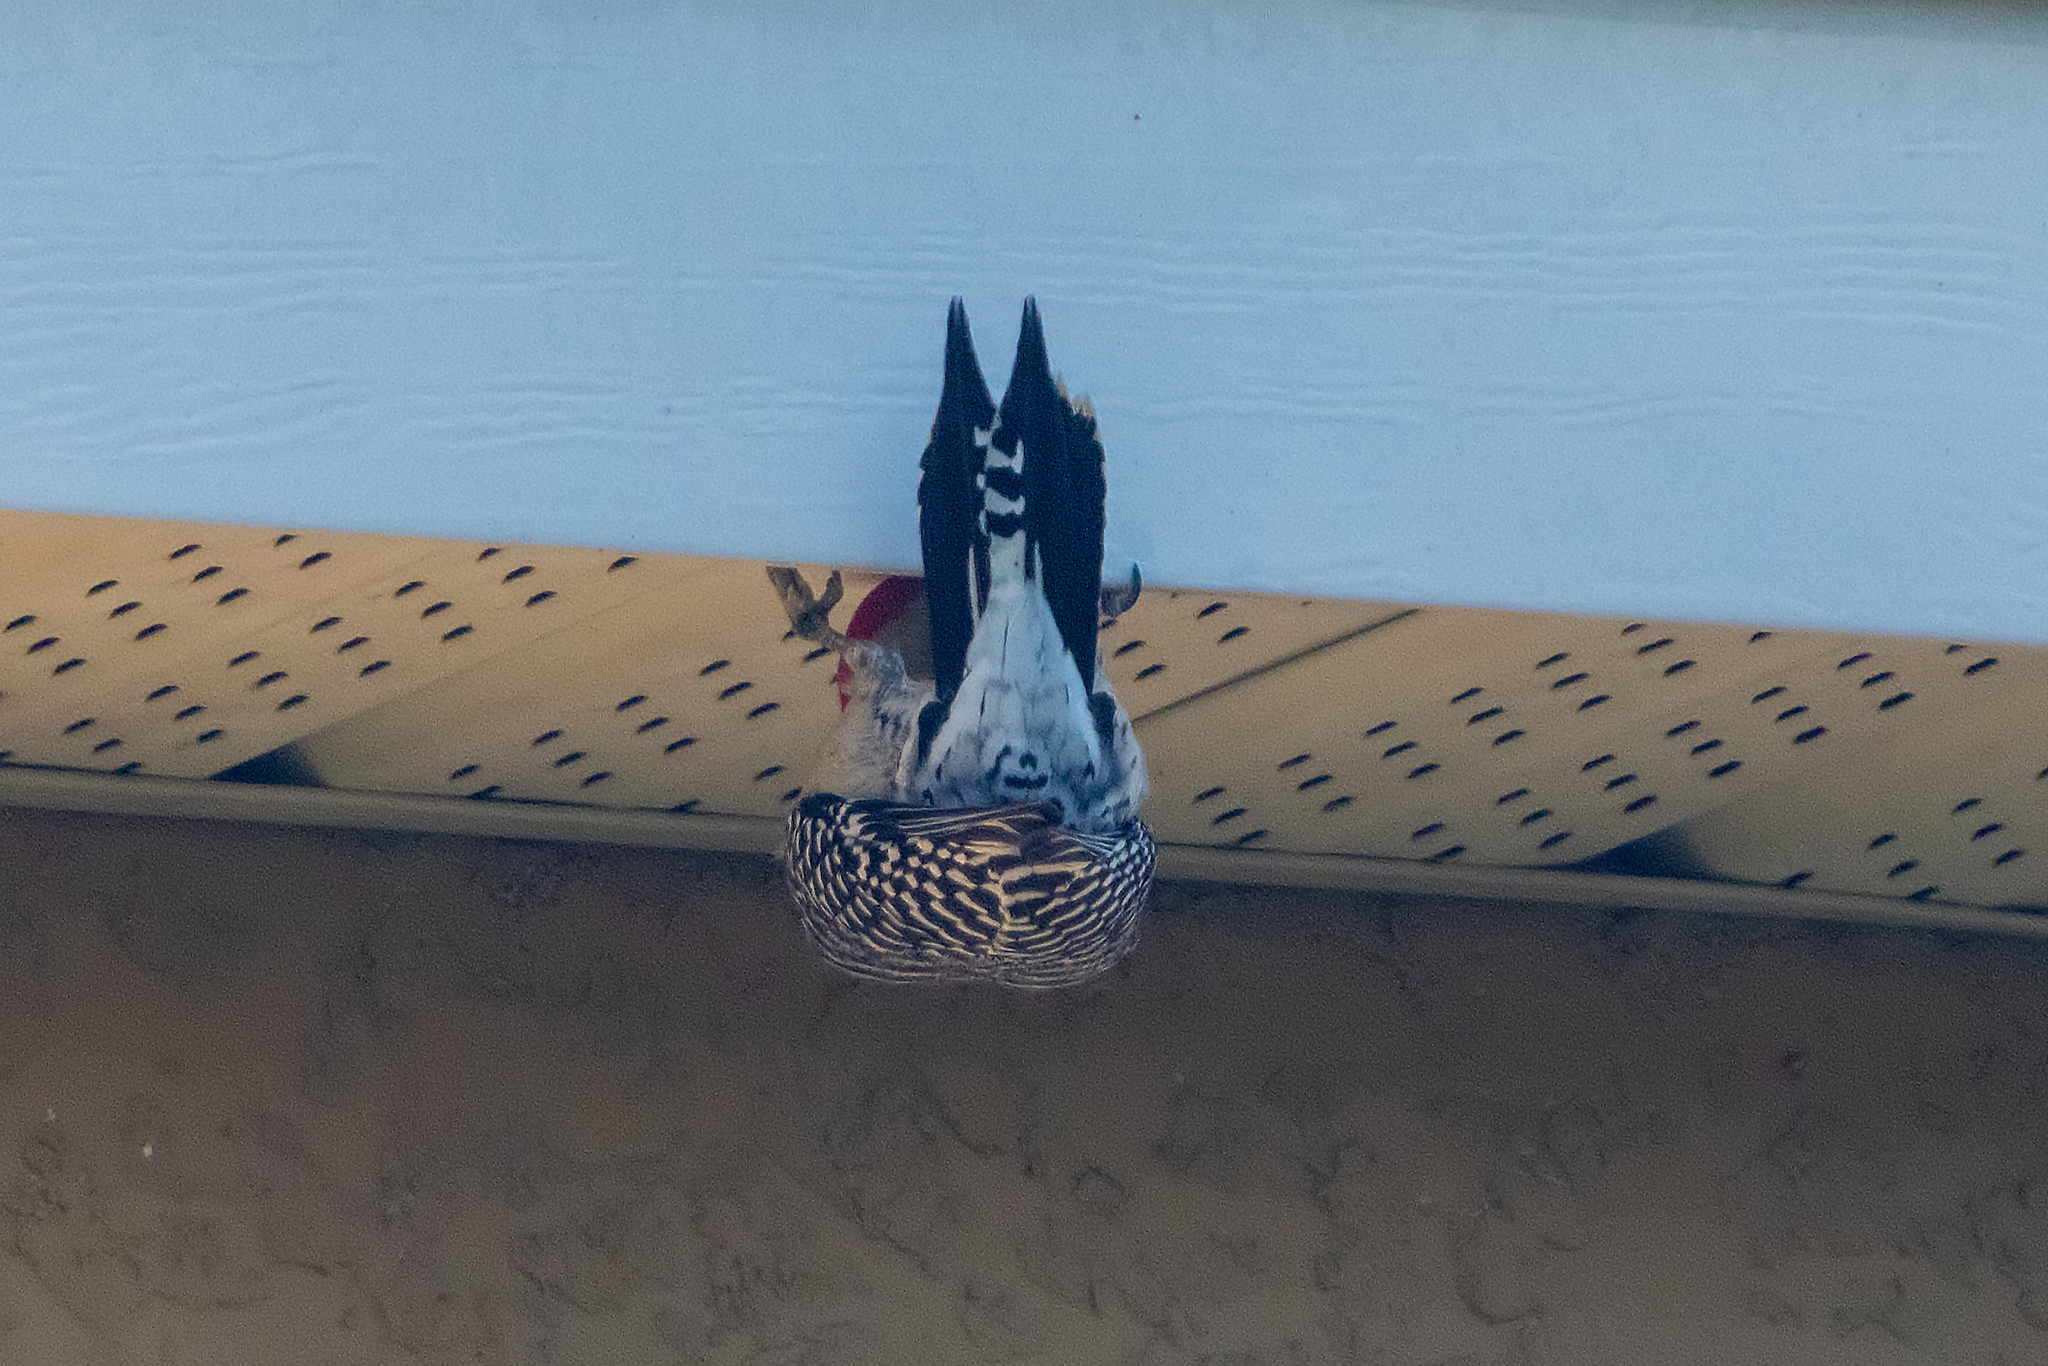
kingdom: Animalia
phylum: Chordata
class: Aves
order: Piciformes
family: Picidae
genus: Melanerpes
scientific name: Melanerpes carolinus
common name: Red-bellied woodpecker
